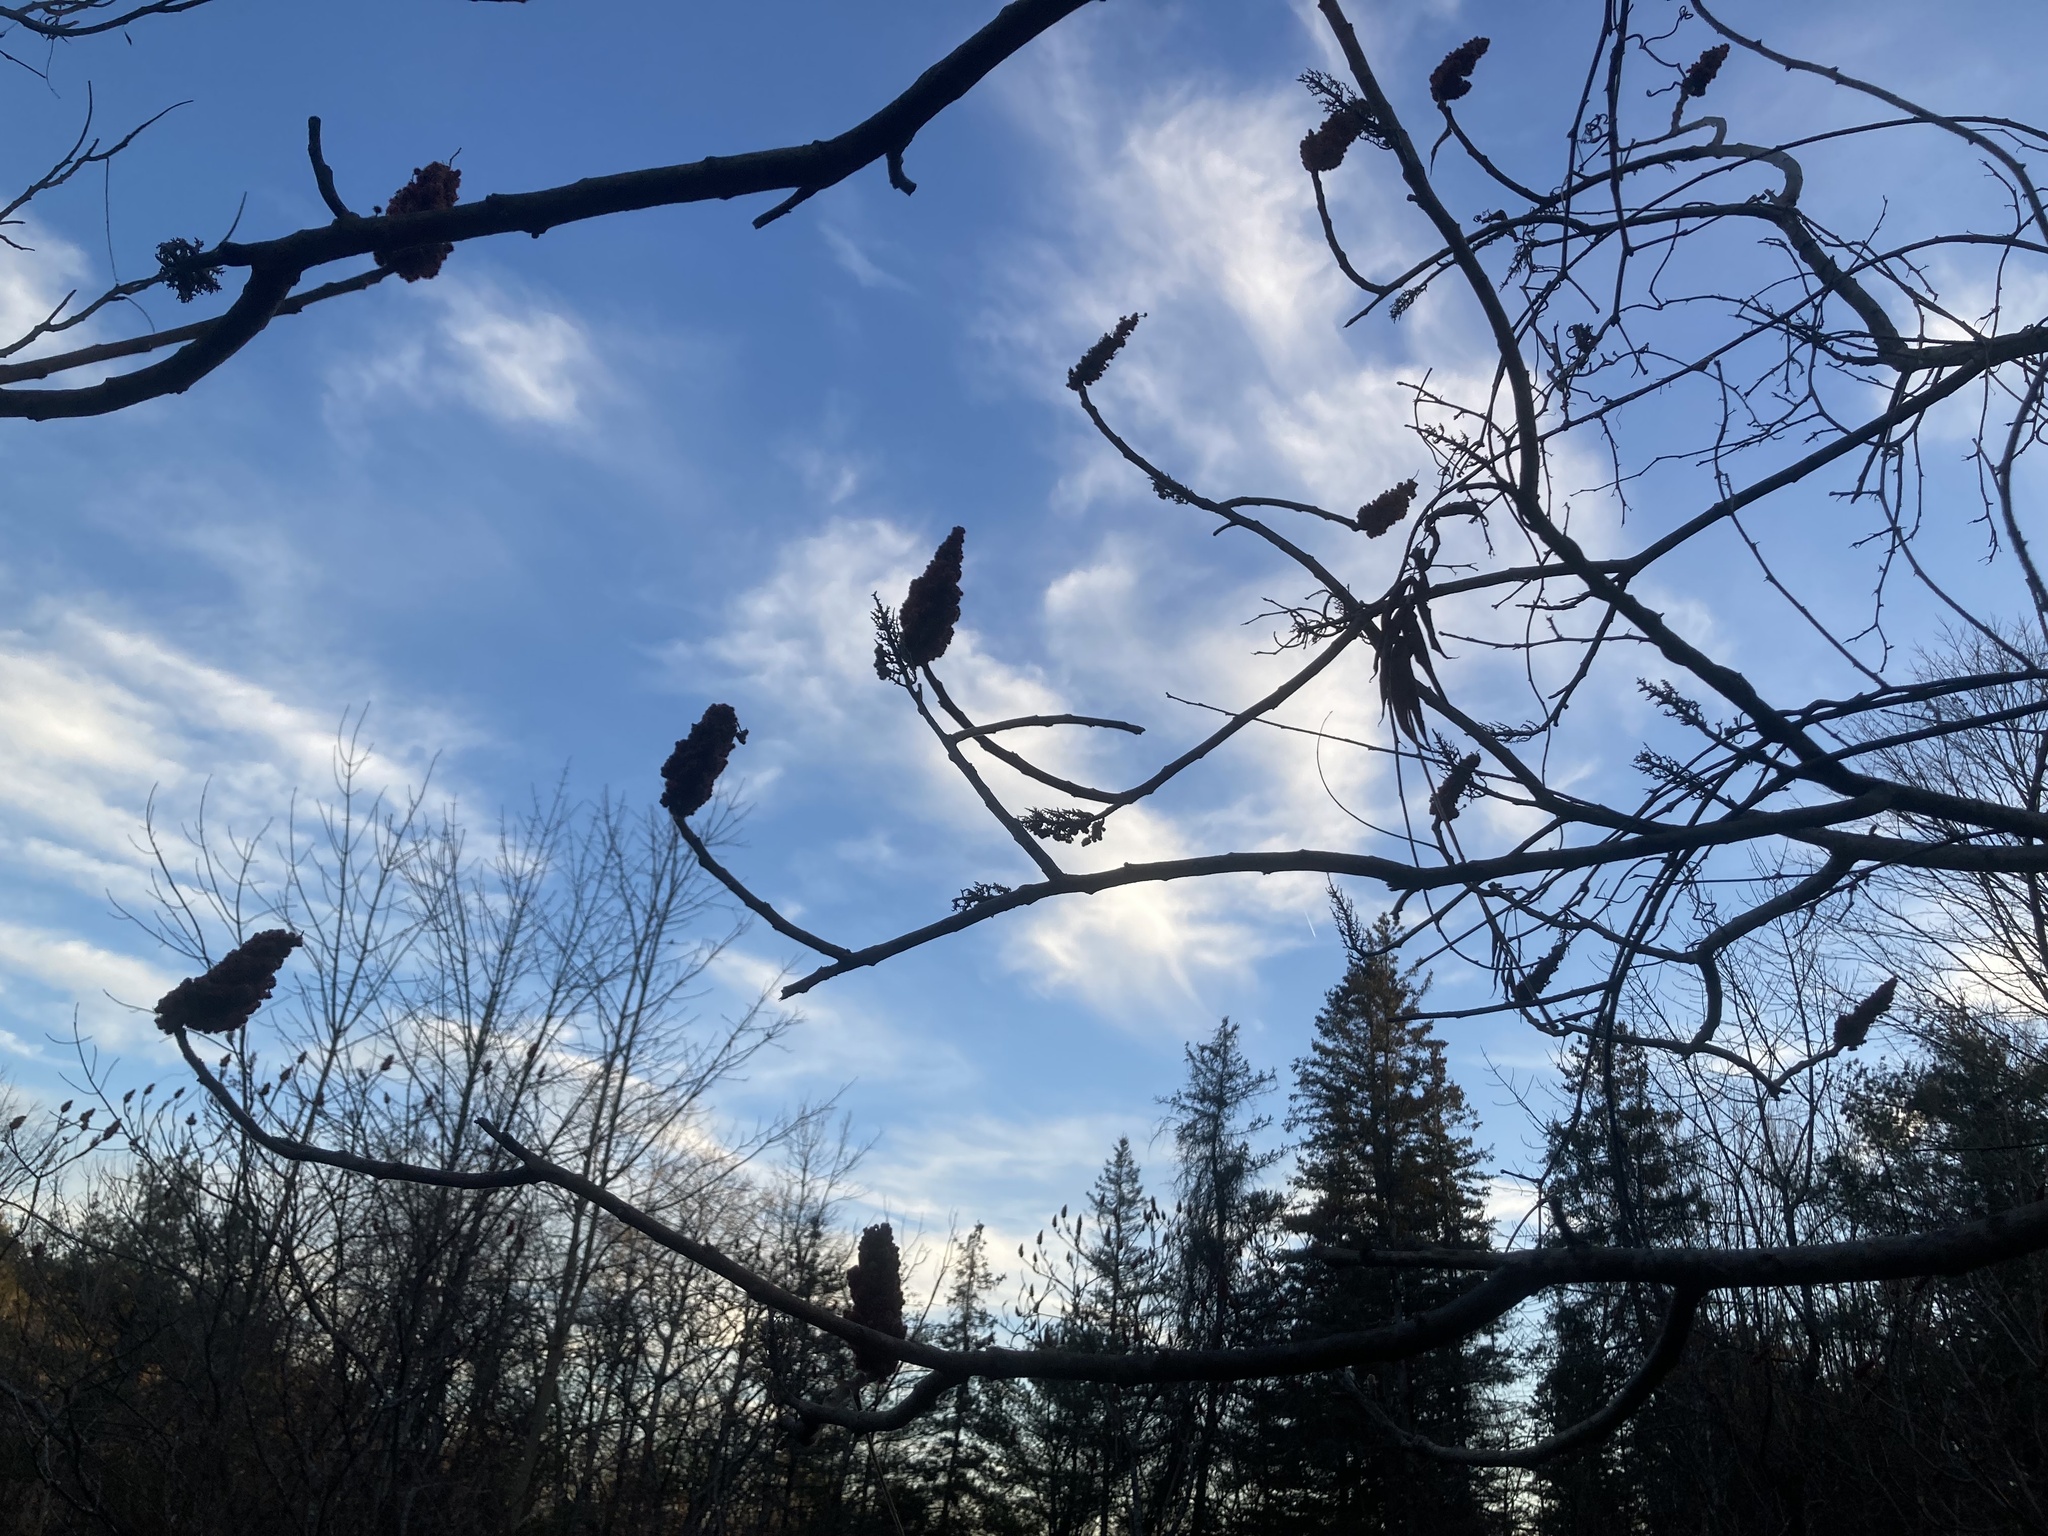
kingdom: Plantae
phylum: Tracheophyta
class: Magnoliopsida
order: Sapindales
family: Anacardiaceae
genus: Rhus
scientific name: Rhus typhina
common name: Staghorn sumac
